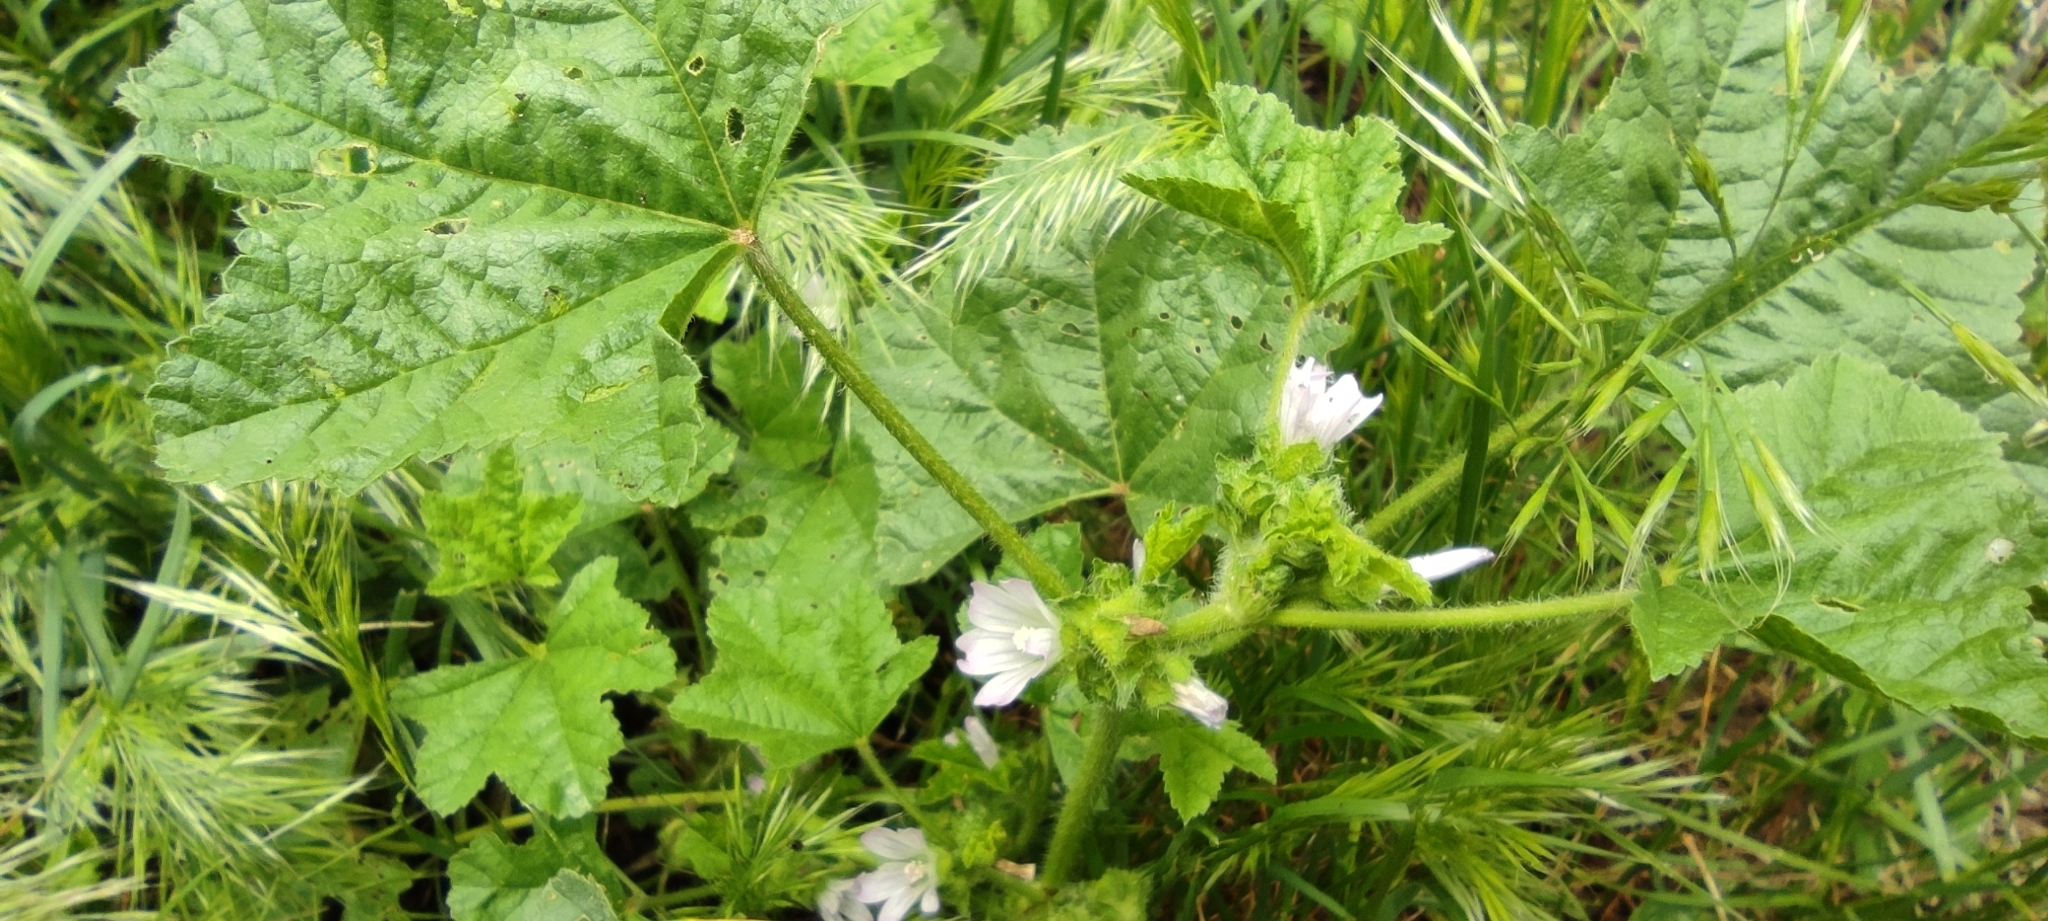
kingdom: Plantae
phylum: Tracheophyta
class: Magnoliopsida
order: Malvales
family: Malvaceae
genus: Malva
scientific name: Malva nicaeensis
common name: French mallow
